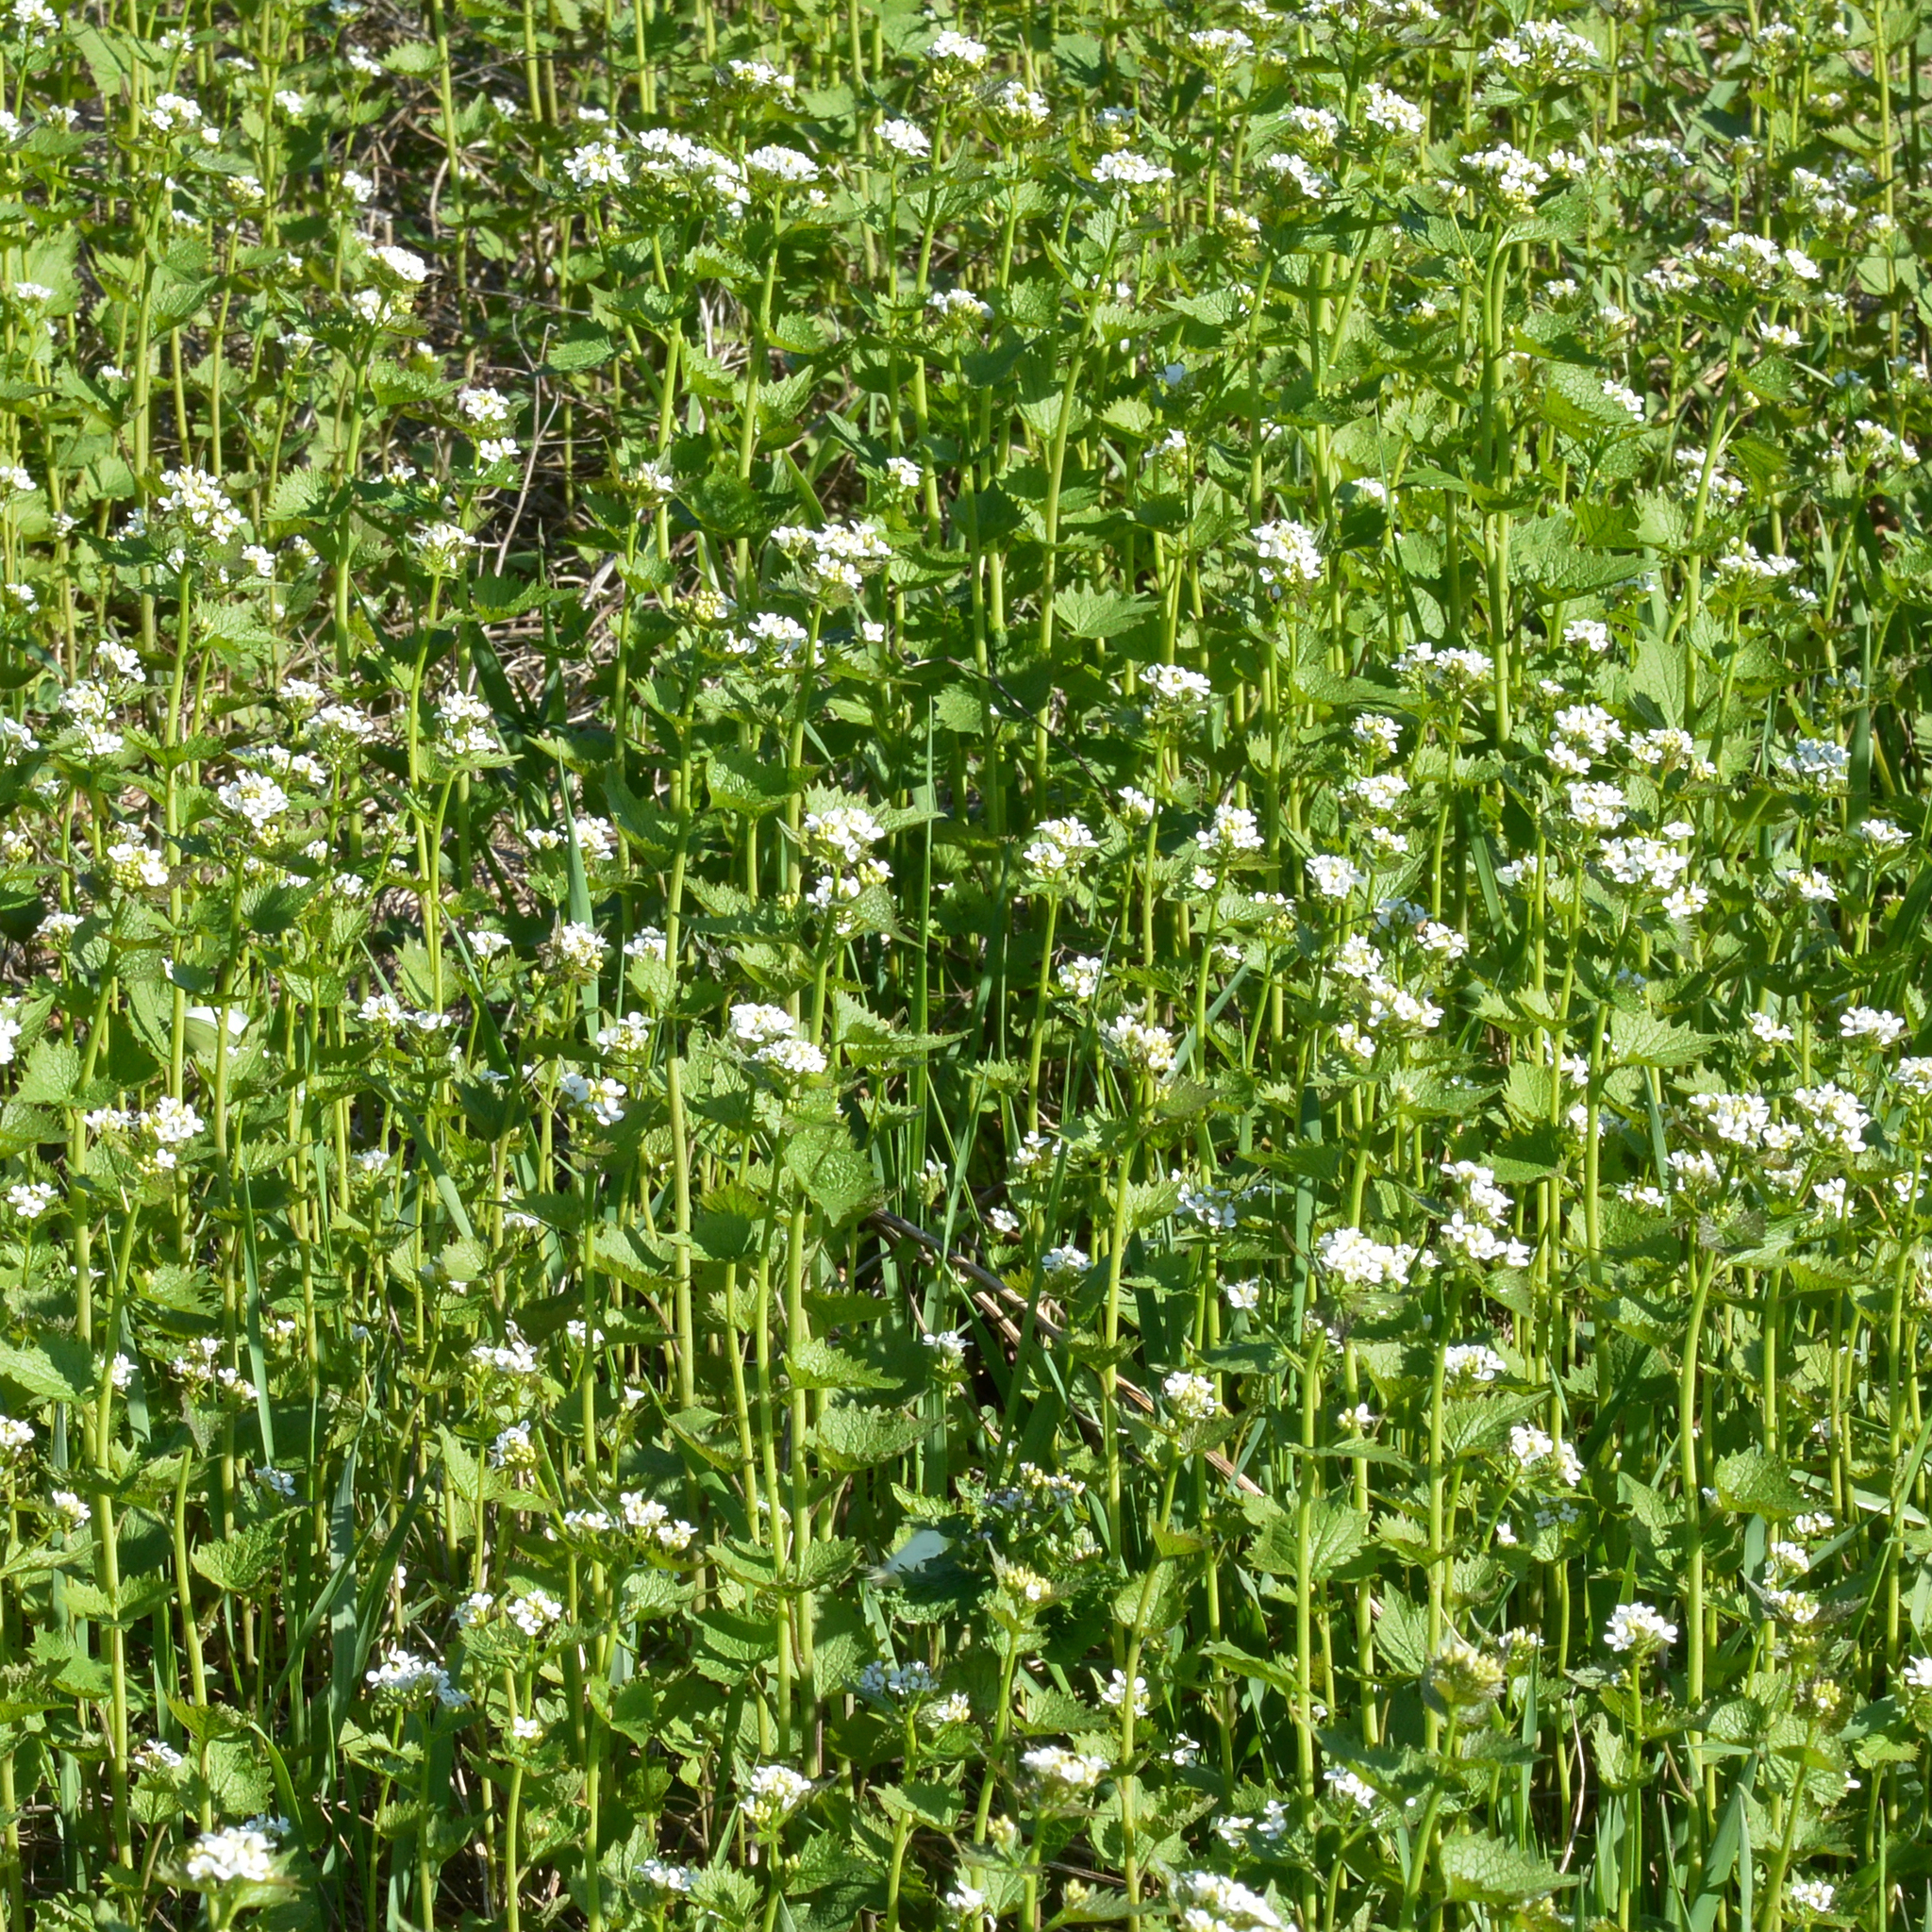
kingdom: Plantae
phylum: Tracheophyta
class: Magnoliopsida
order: Brassicales
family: Brassicaceae
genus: Alliaria
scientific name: Alliaria petiolata
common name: Garlic mustard
